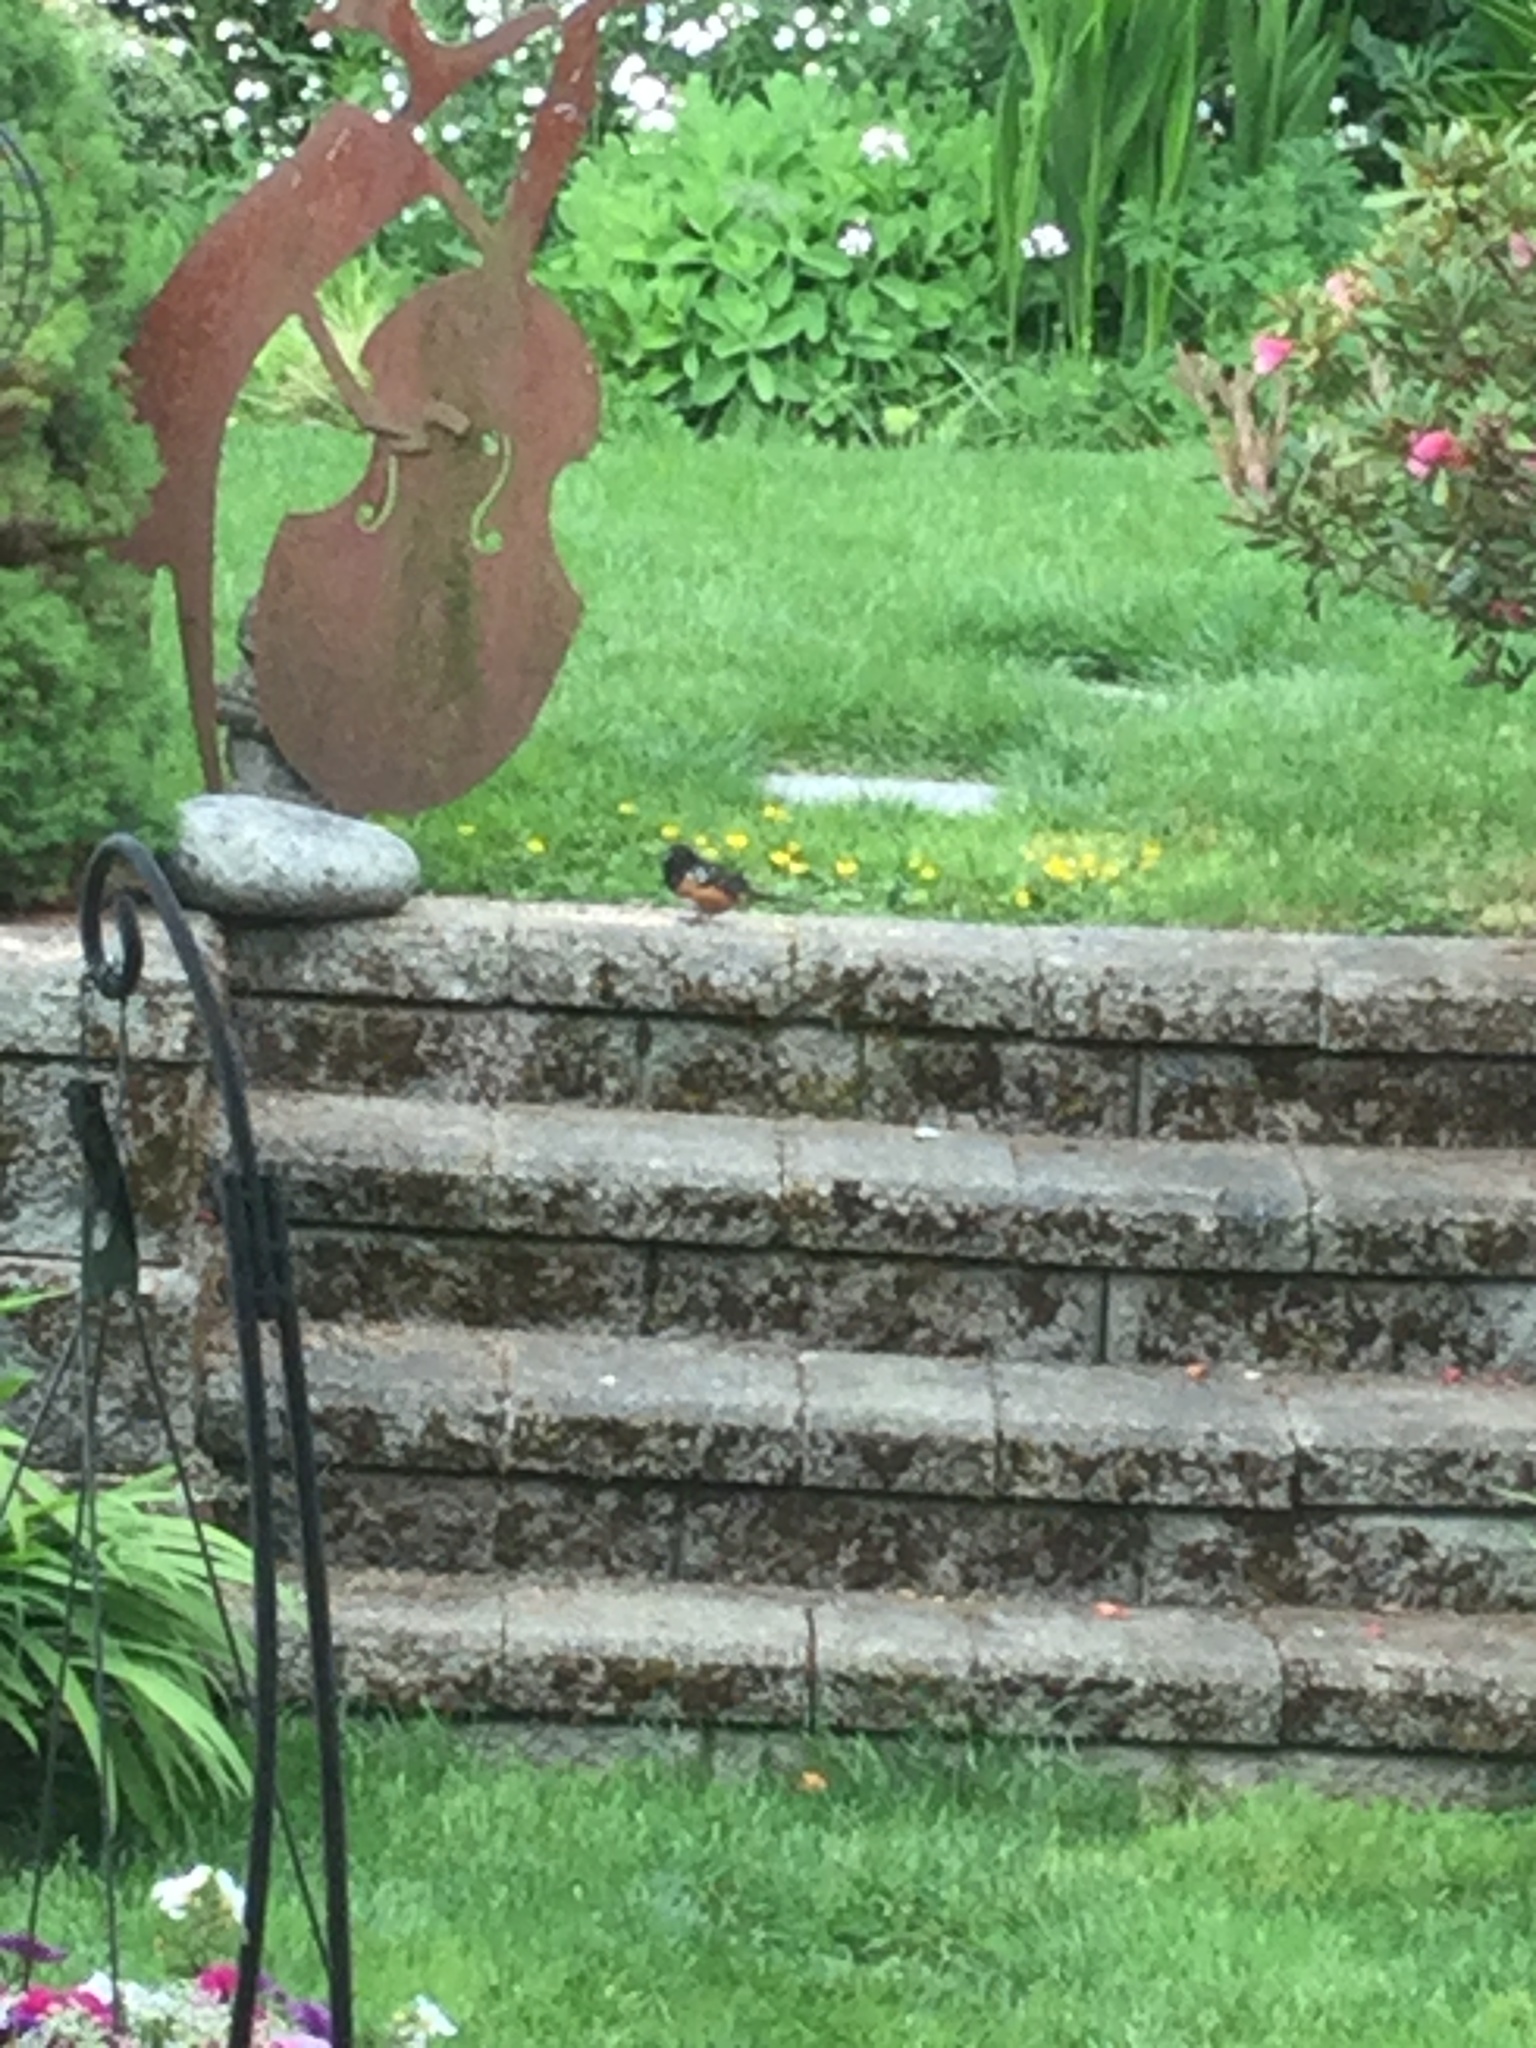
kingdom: Animalia
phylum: Chordata
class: Aves
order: Passeriformes
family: Passerellidae
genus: Pipilo
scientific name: Pipilo maculatus
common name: Spotted towhee
